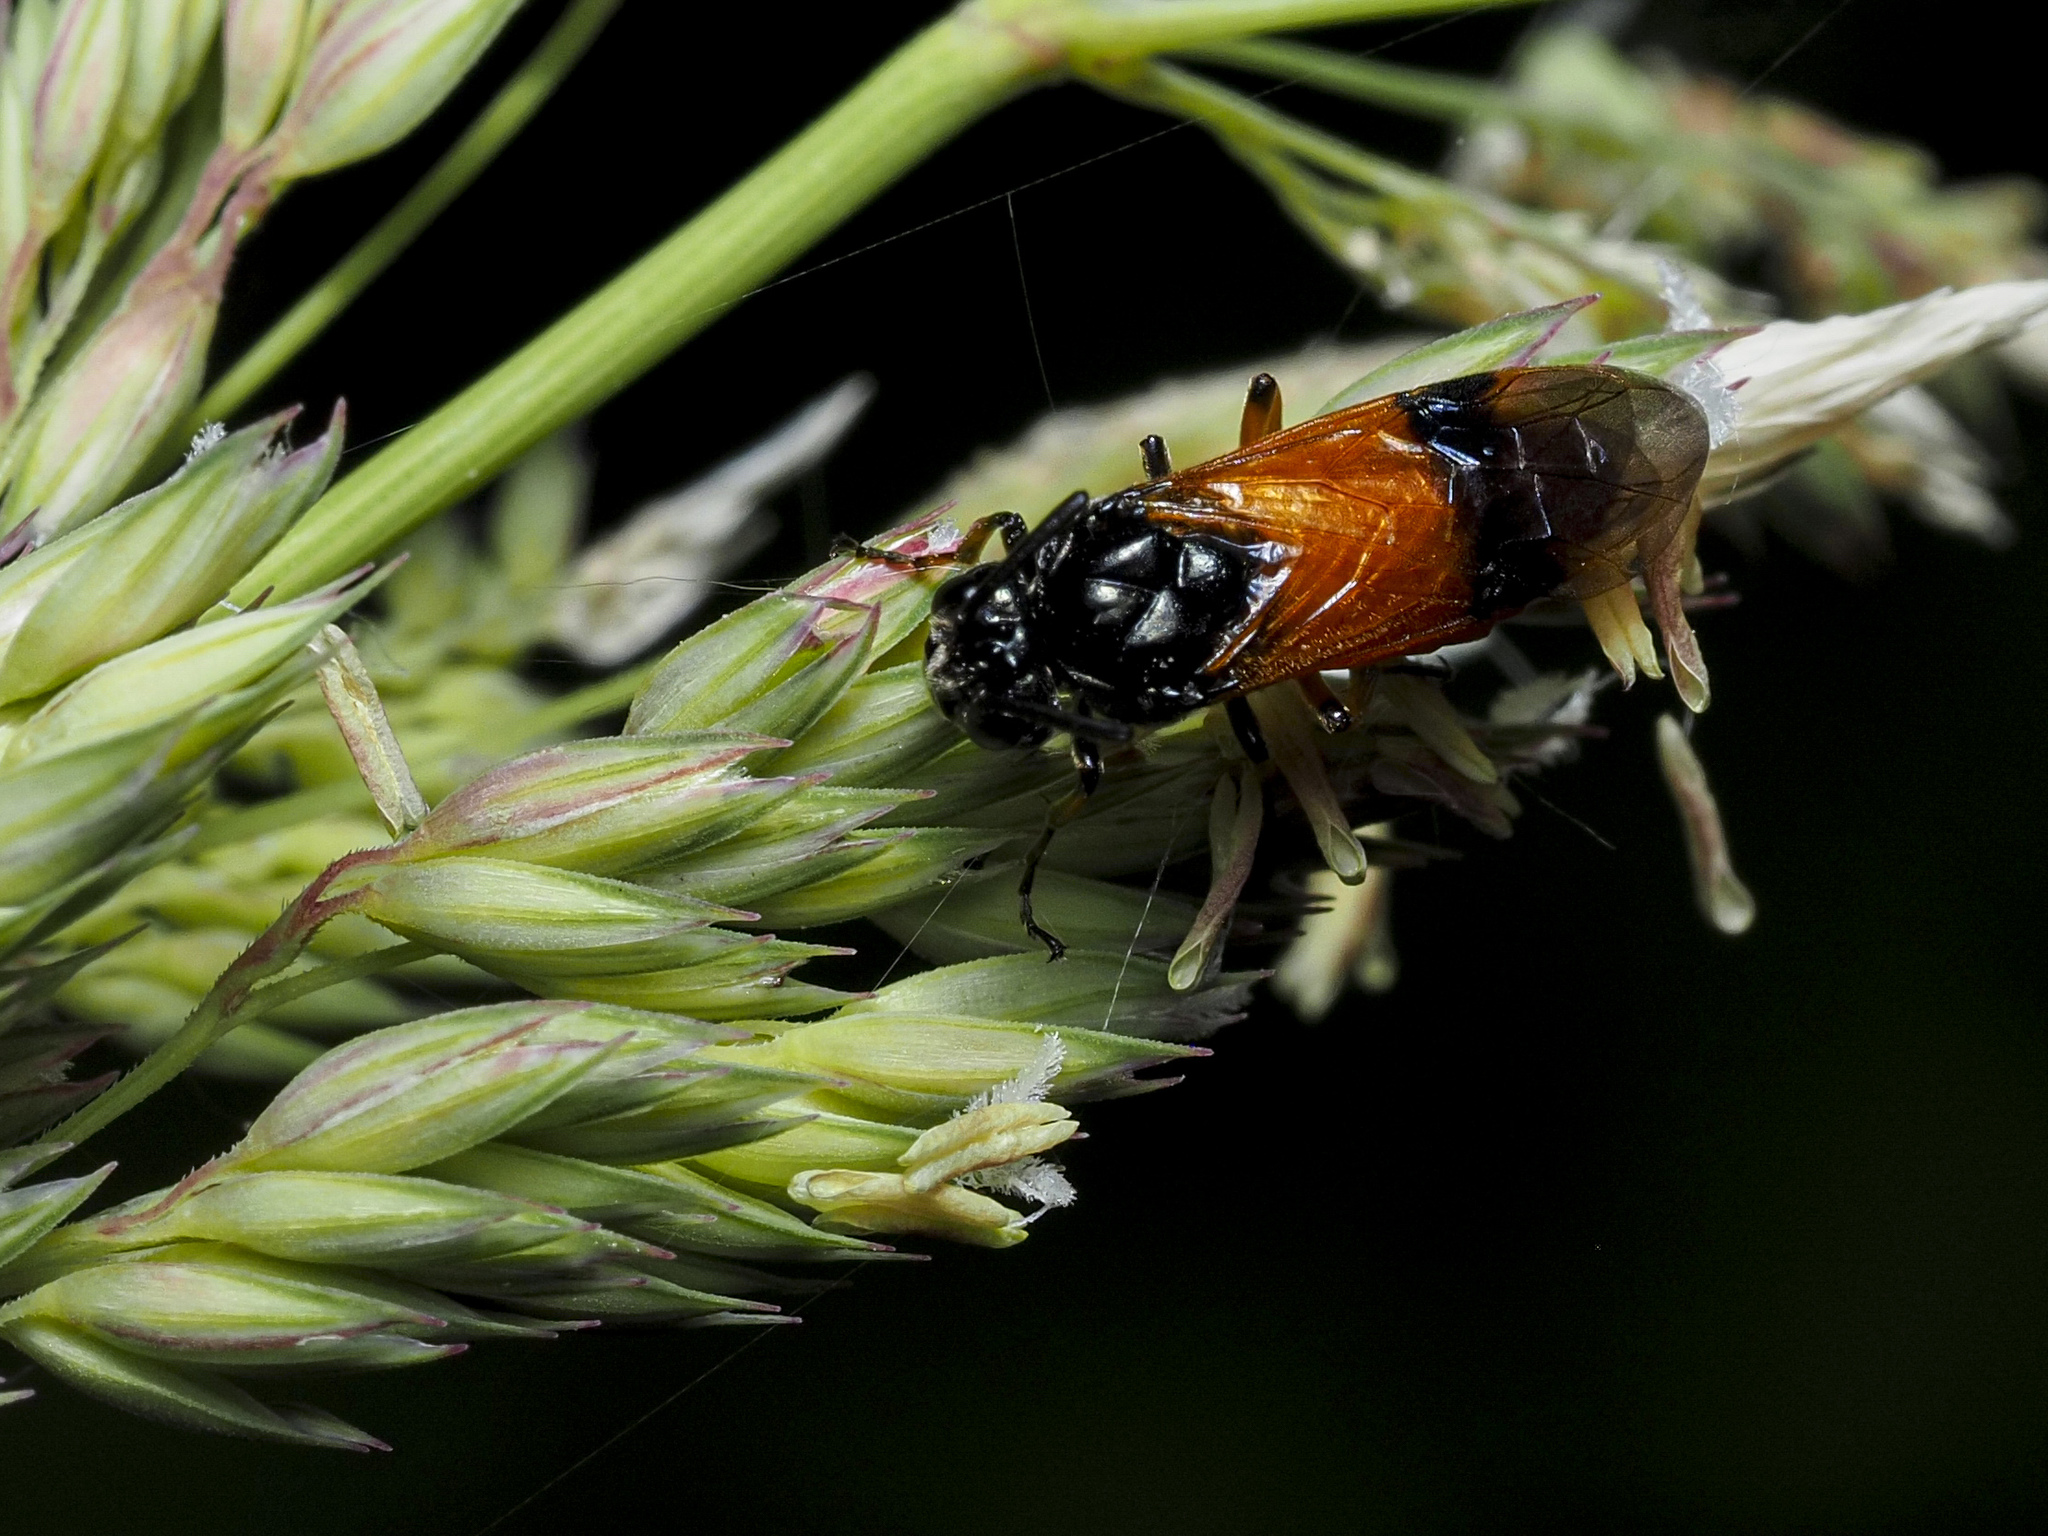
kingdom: Animalia
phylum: Arthropoda
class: Insecta
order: Hymenoptera
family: Argidae
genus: Arge
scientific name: Arge cyanocrocea
